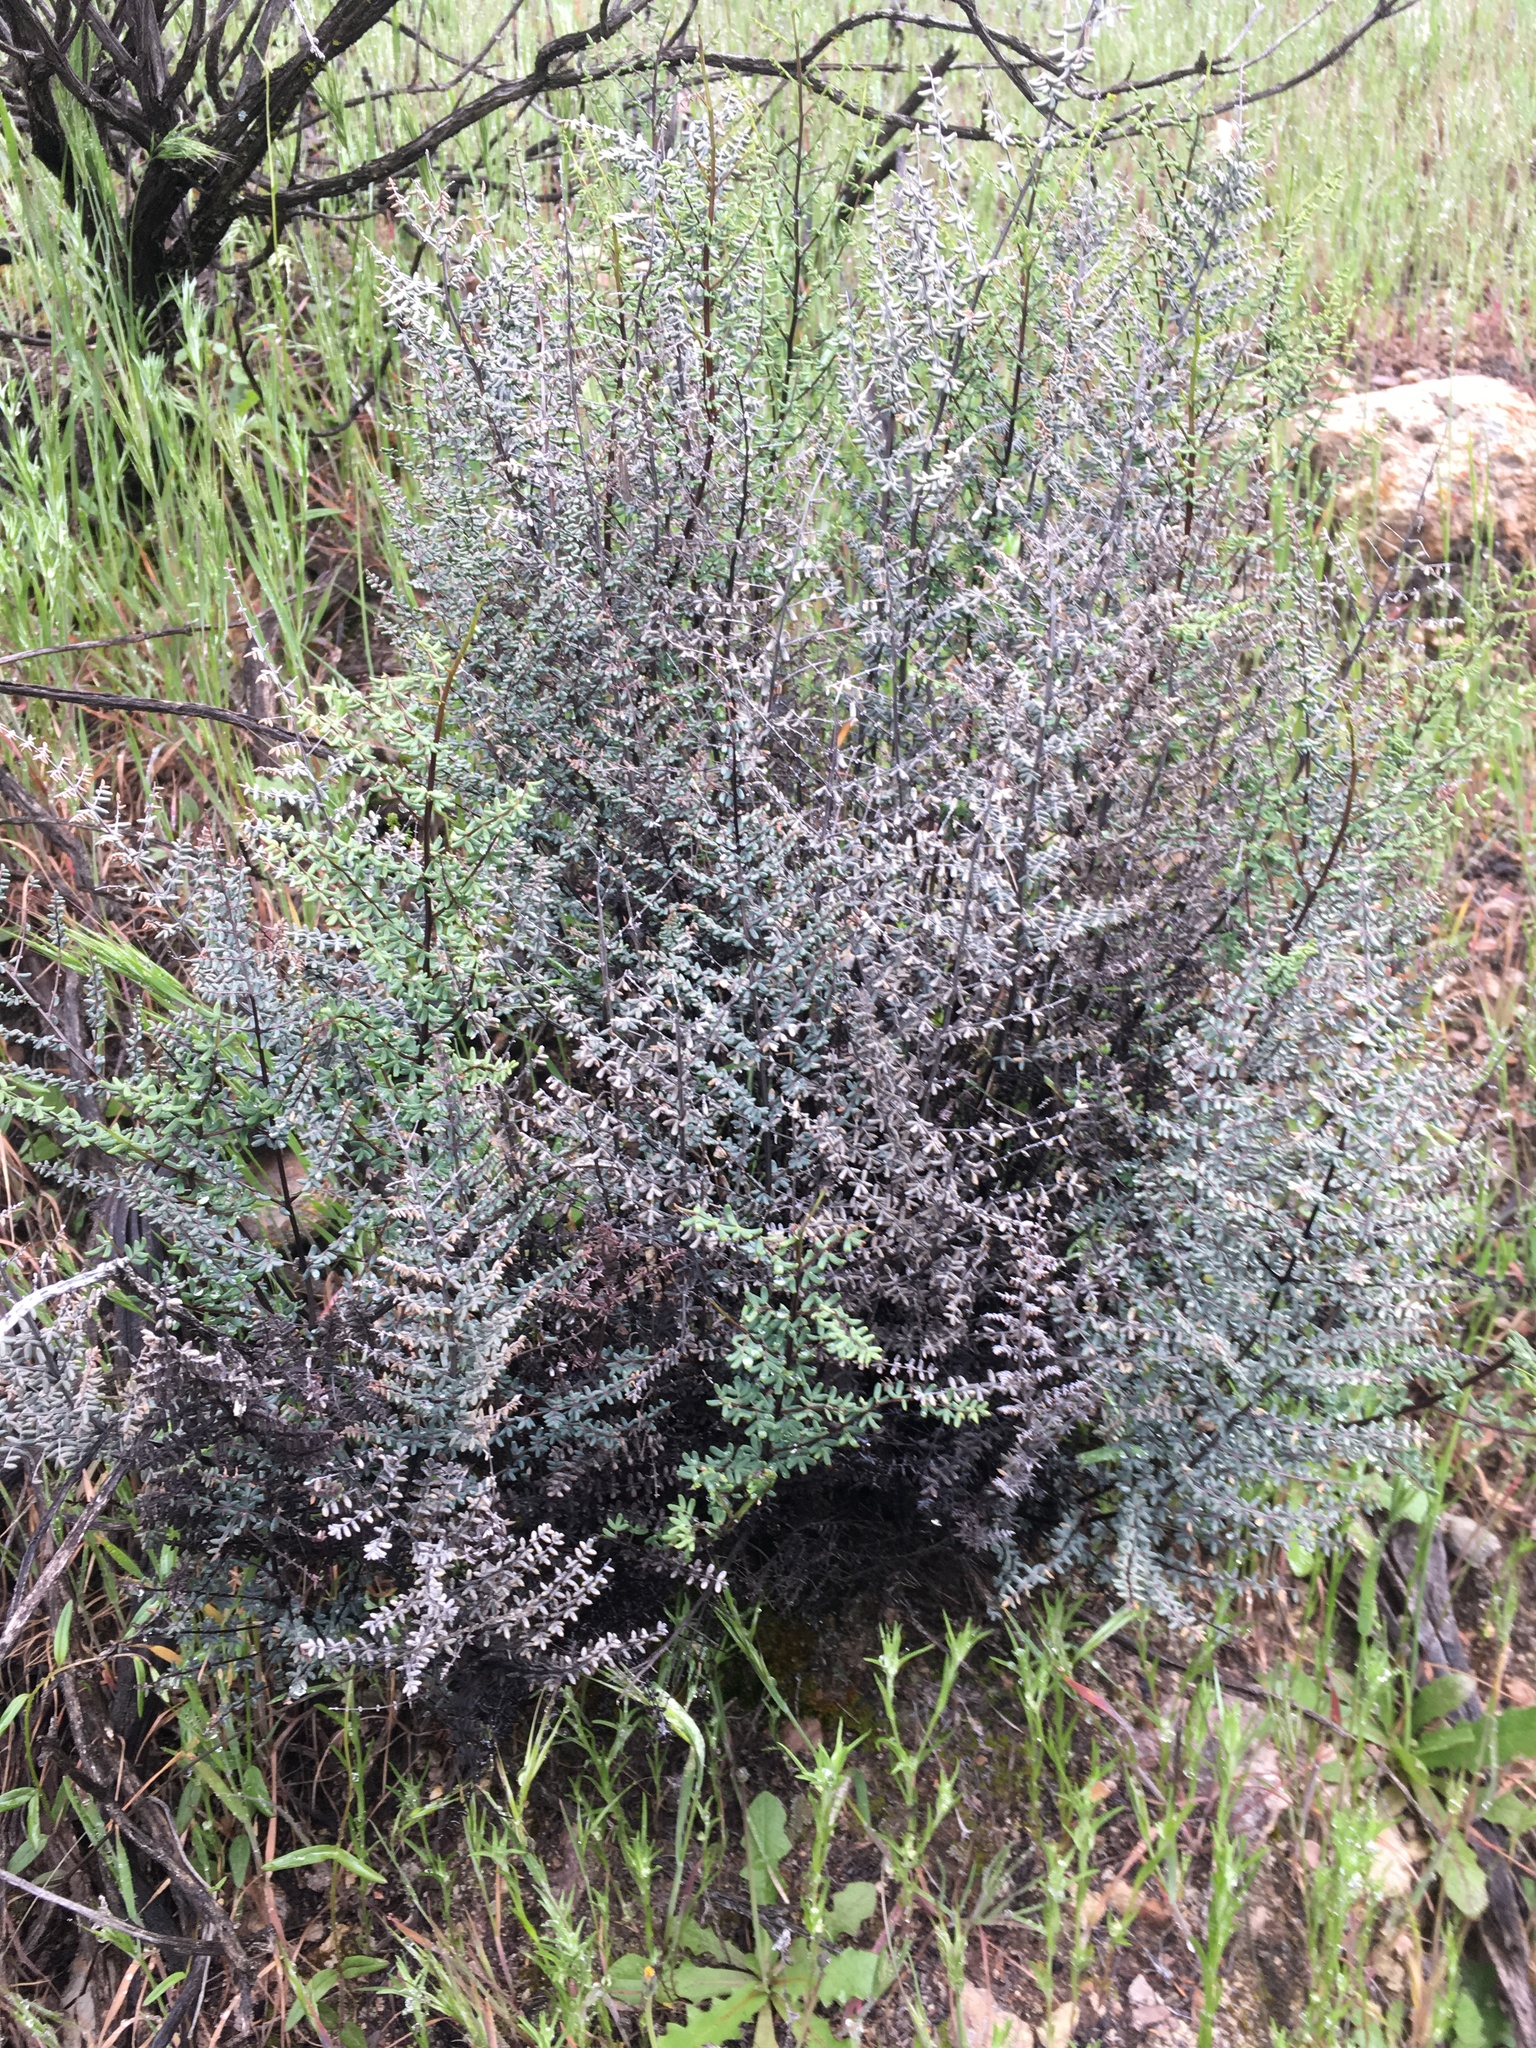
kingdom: Plantae
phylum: Tracheophyta
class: Polypodiopsida
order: Polypodiales
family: Pteridaceae
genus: Pellaea
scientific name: Pellaea mucronata
